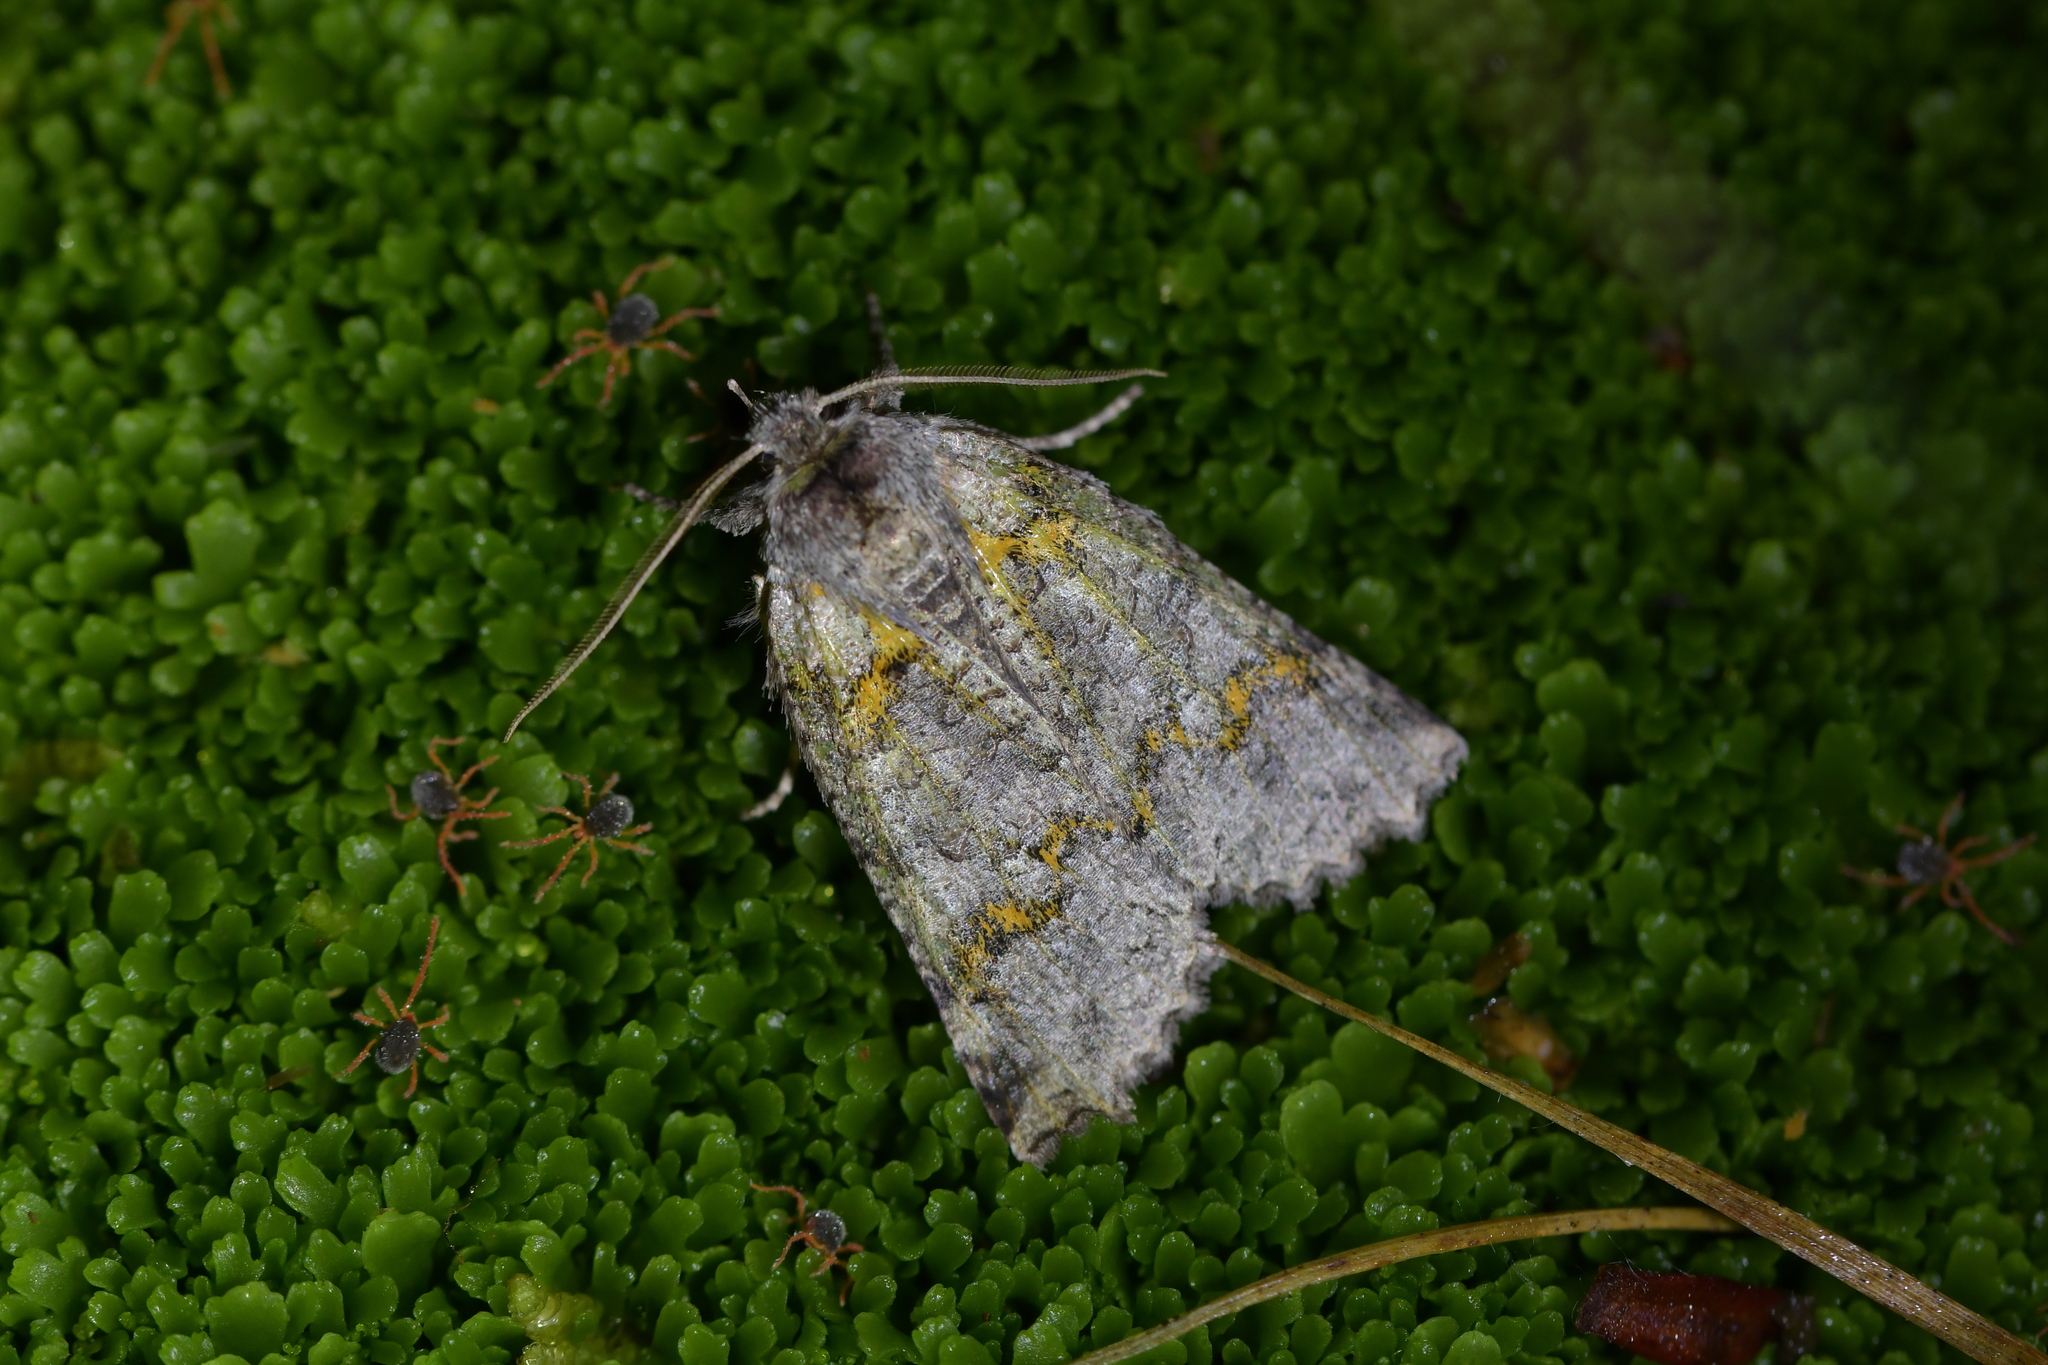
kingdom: Animalia
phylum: Arthropoda
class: Insecta
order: Lepidoptera
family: Geometridae
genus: Declana
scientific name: Declana floccosa
